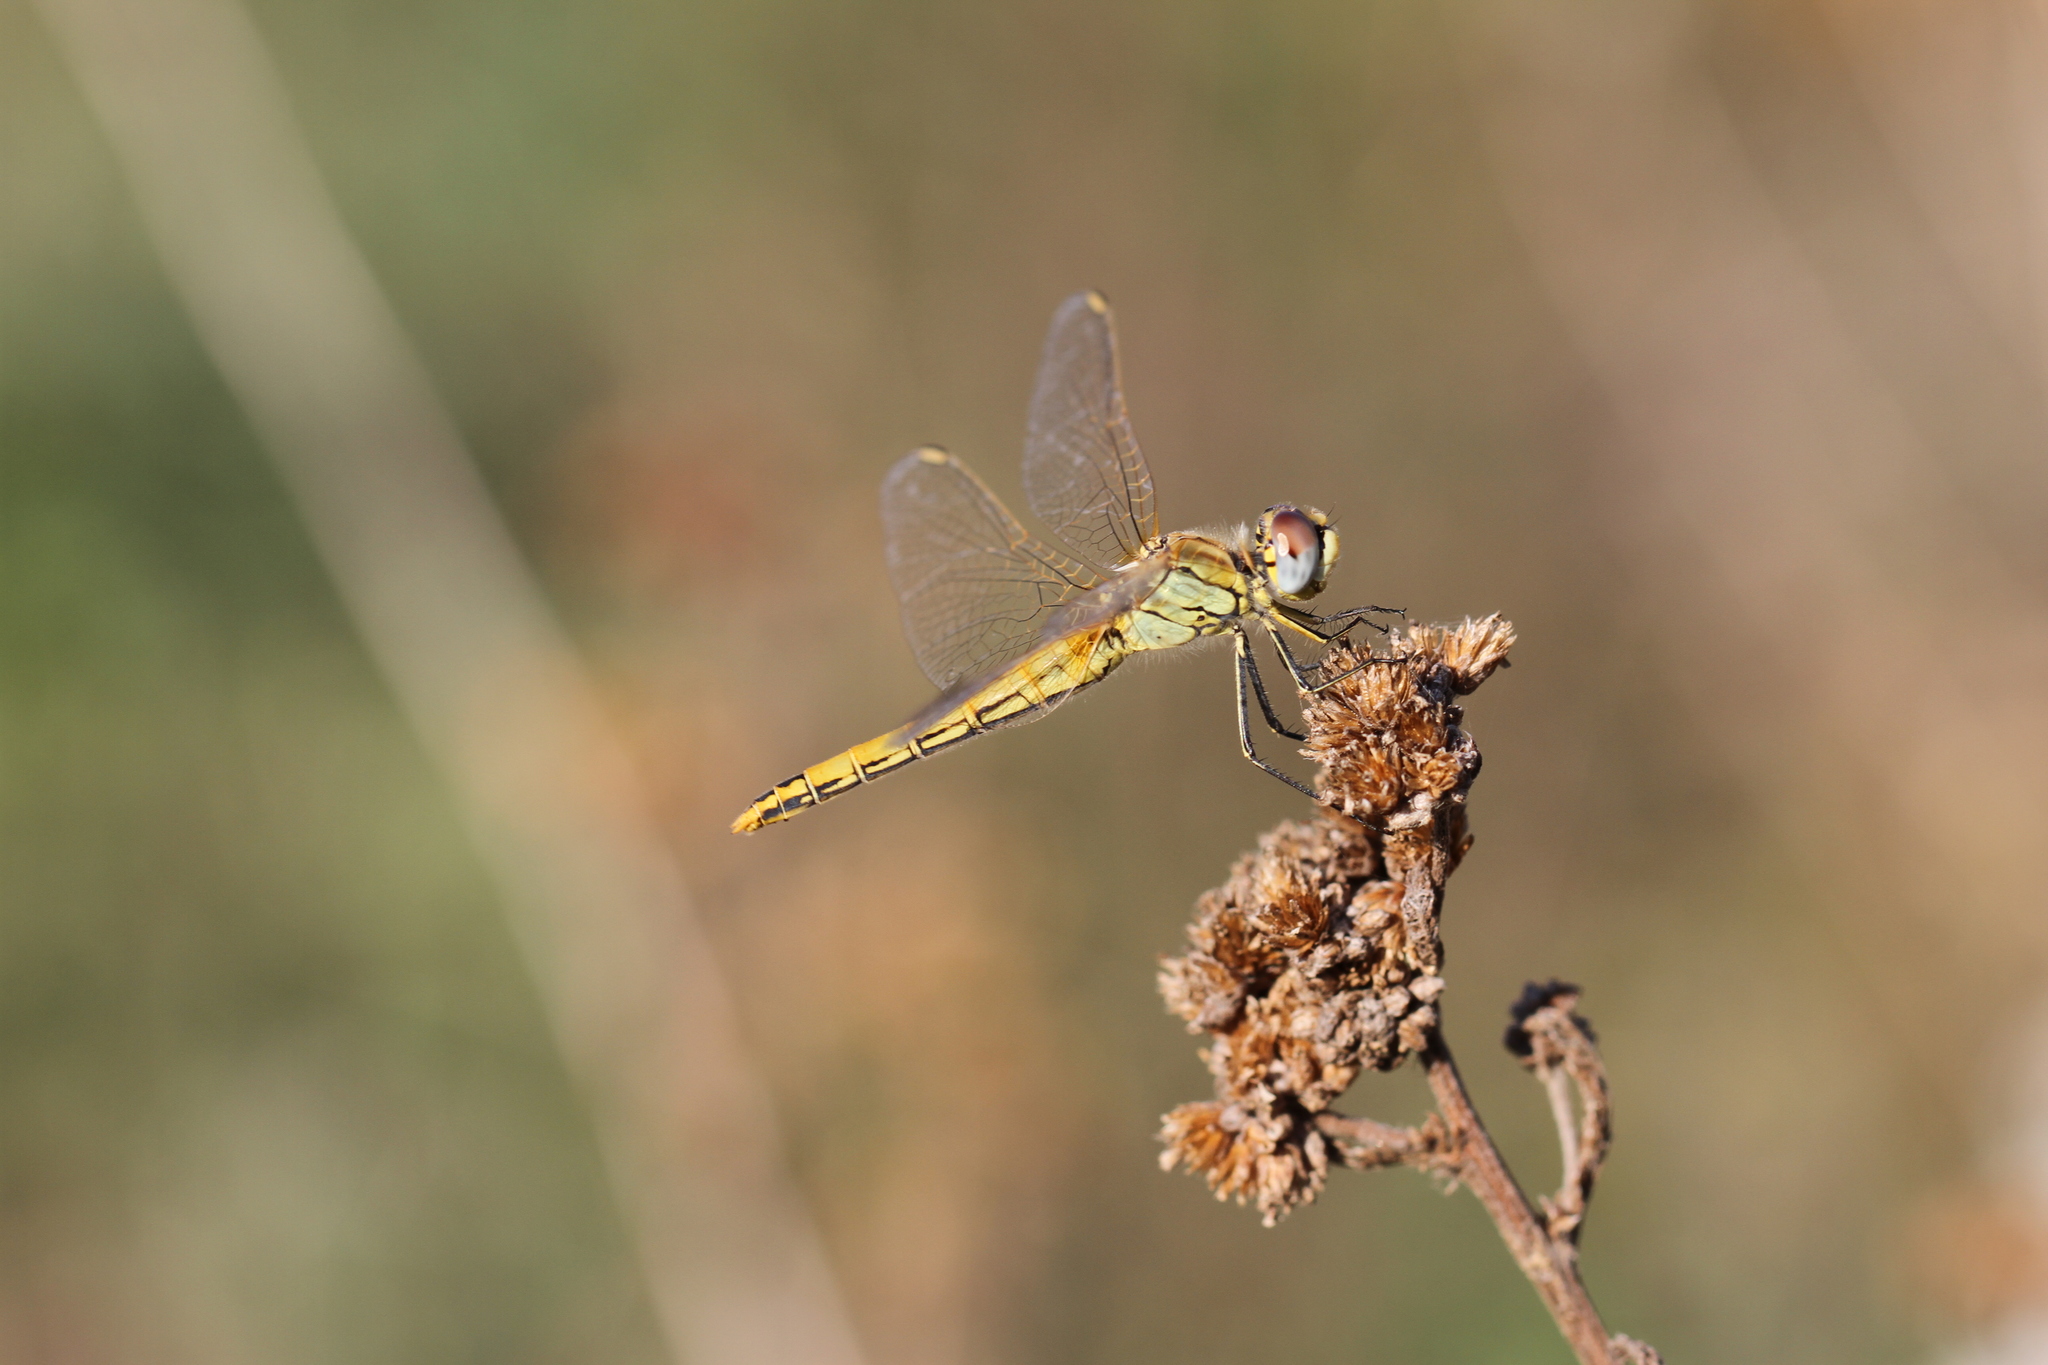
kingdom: Animalia
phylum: Arthropoda
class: Insecta
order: Odonata
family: Libellulidae
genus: Sympetrum
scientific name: Sympetrum fonscolombii
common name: Red-veined darter
